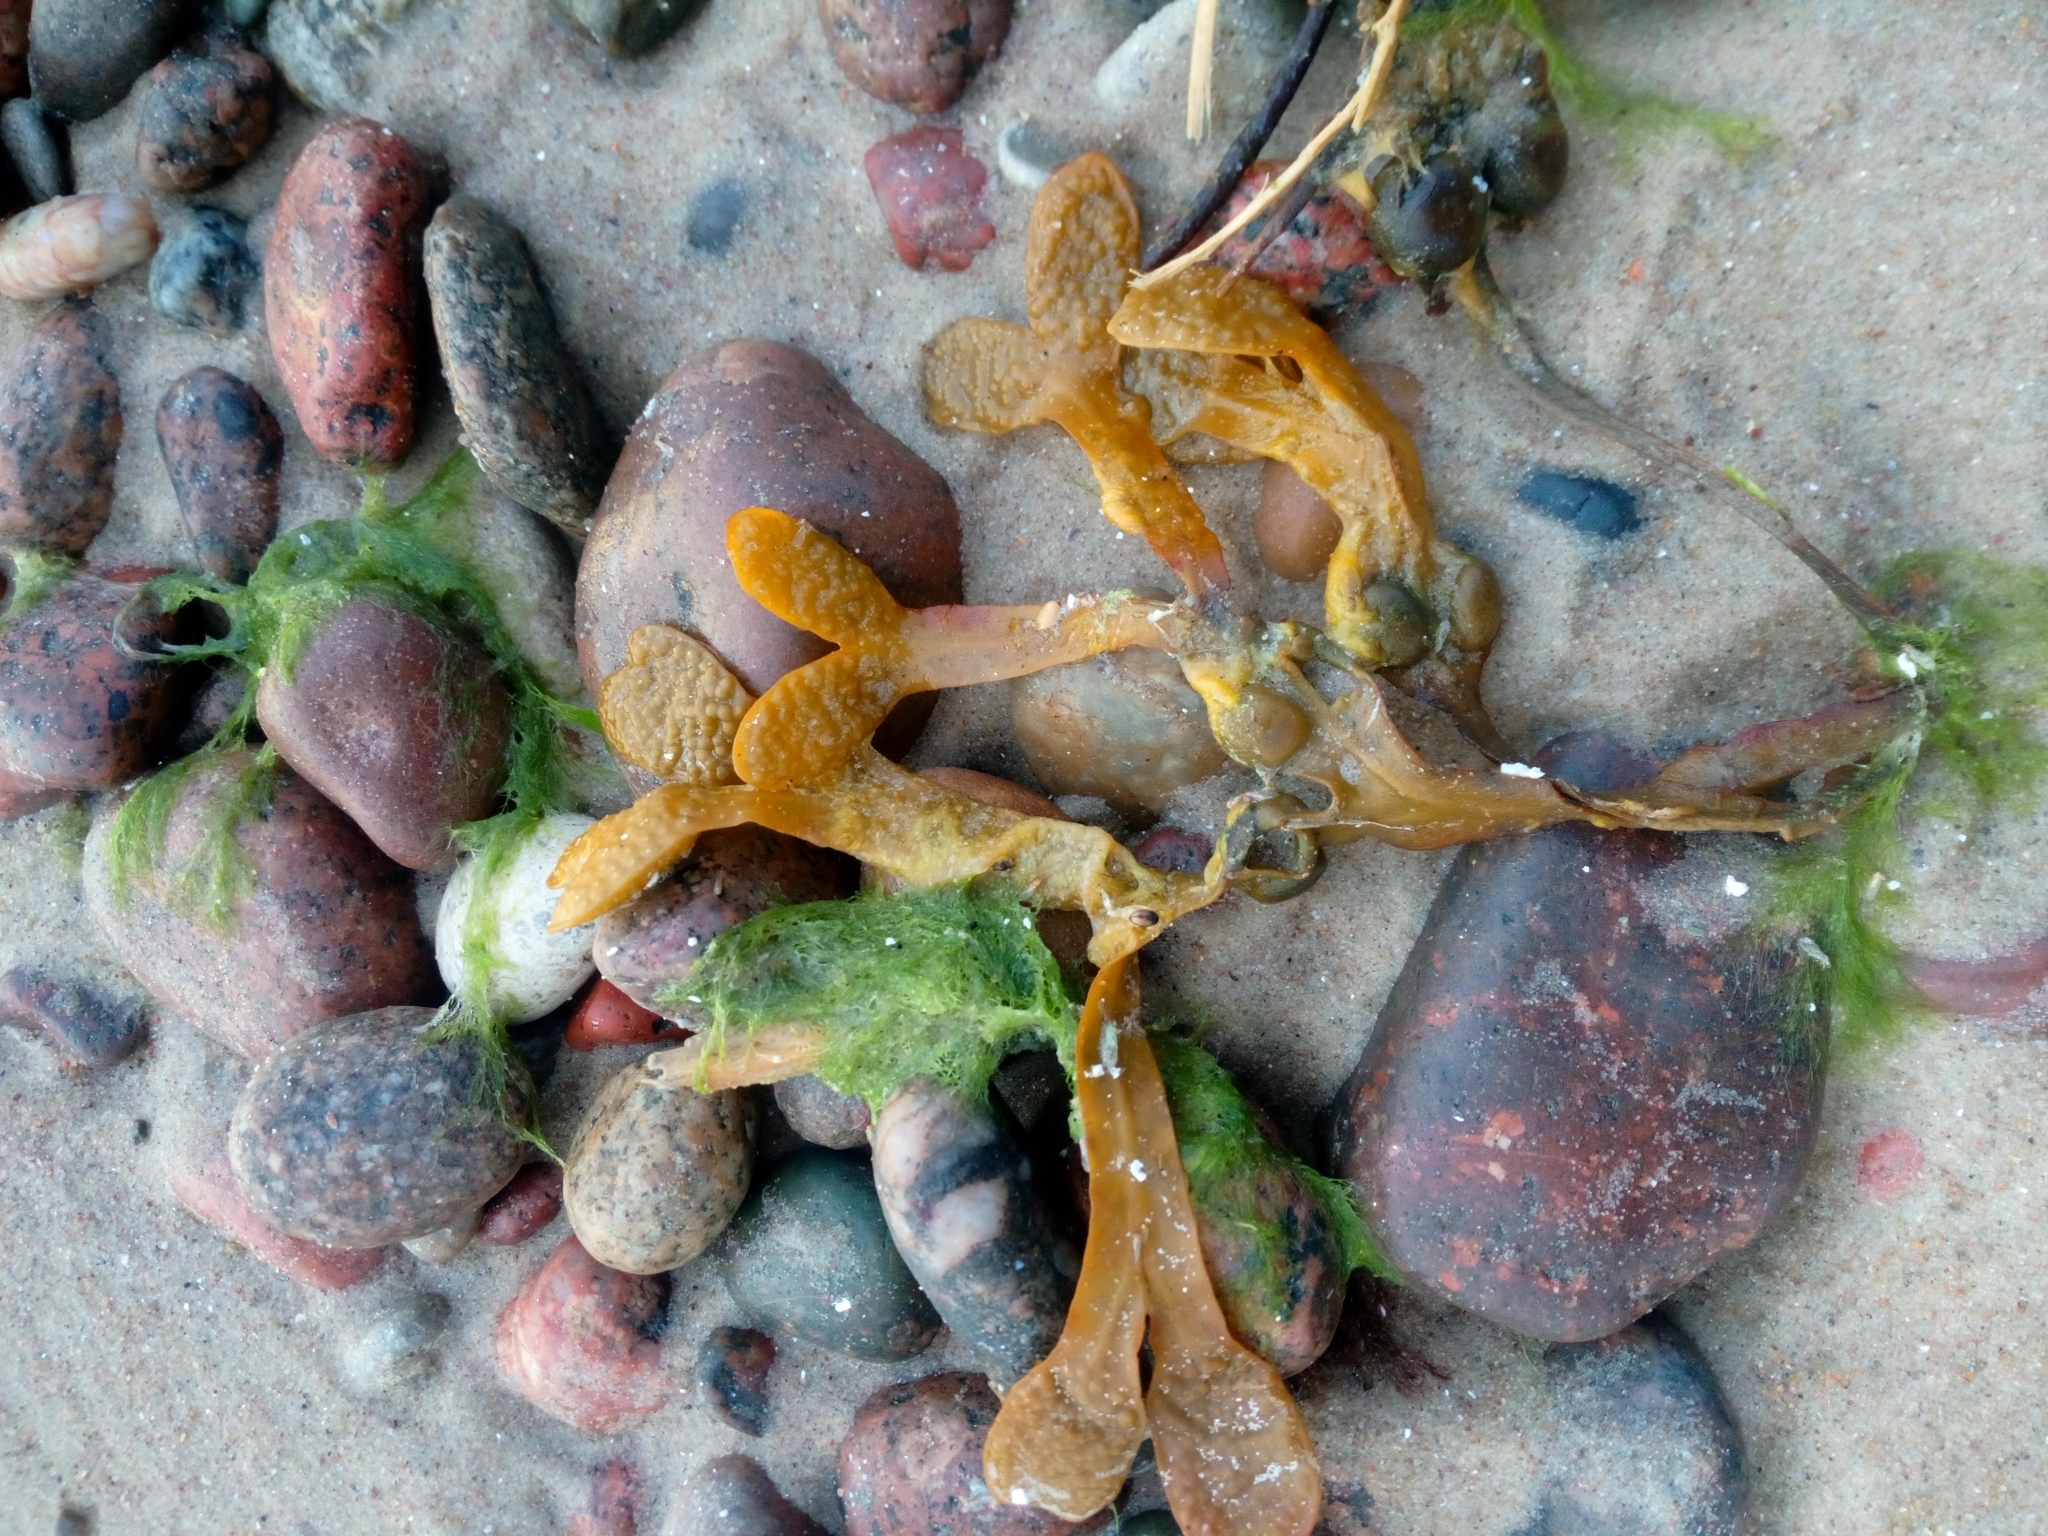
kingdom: Chromista
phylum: Ochrophyta
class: Phaeophyceae
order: Fucales
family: Fucaceae
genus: Fucus
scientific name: Fucus vesiculosus
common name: Bladder wrack
